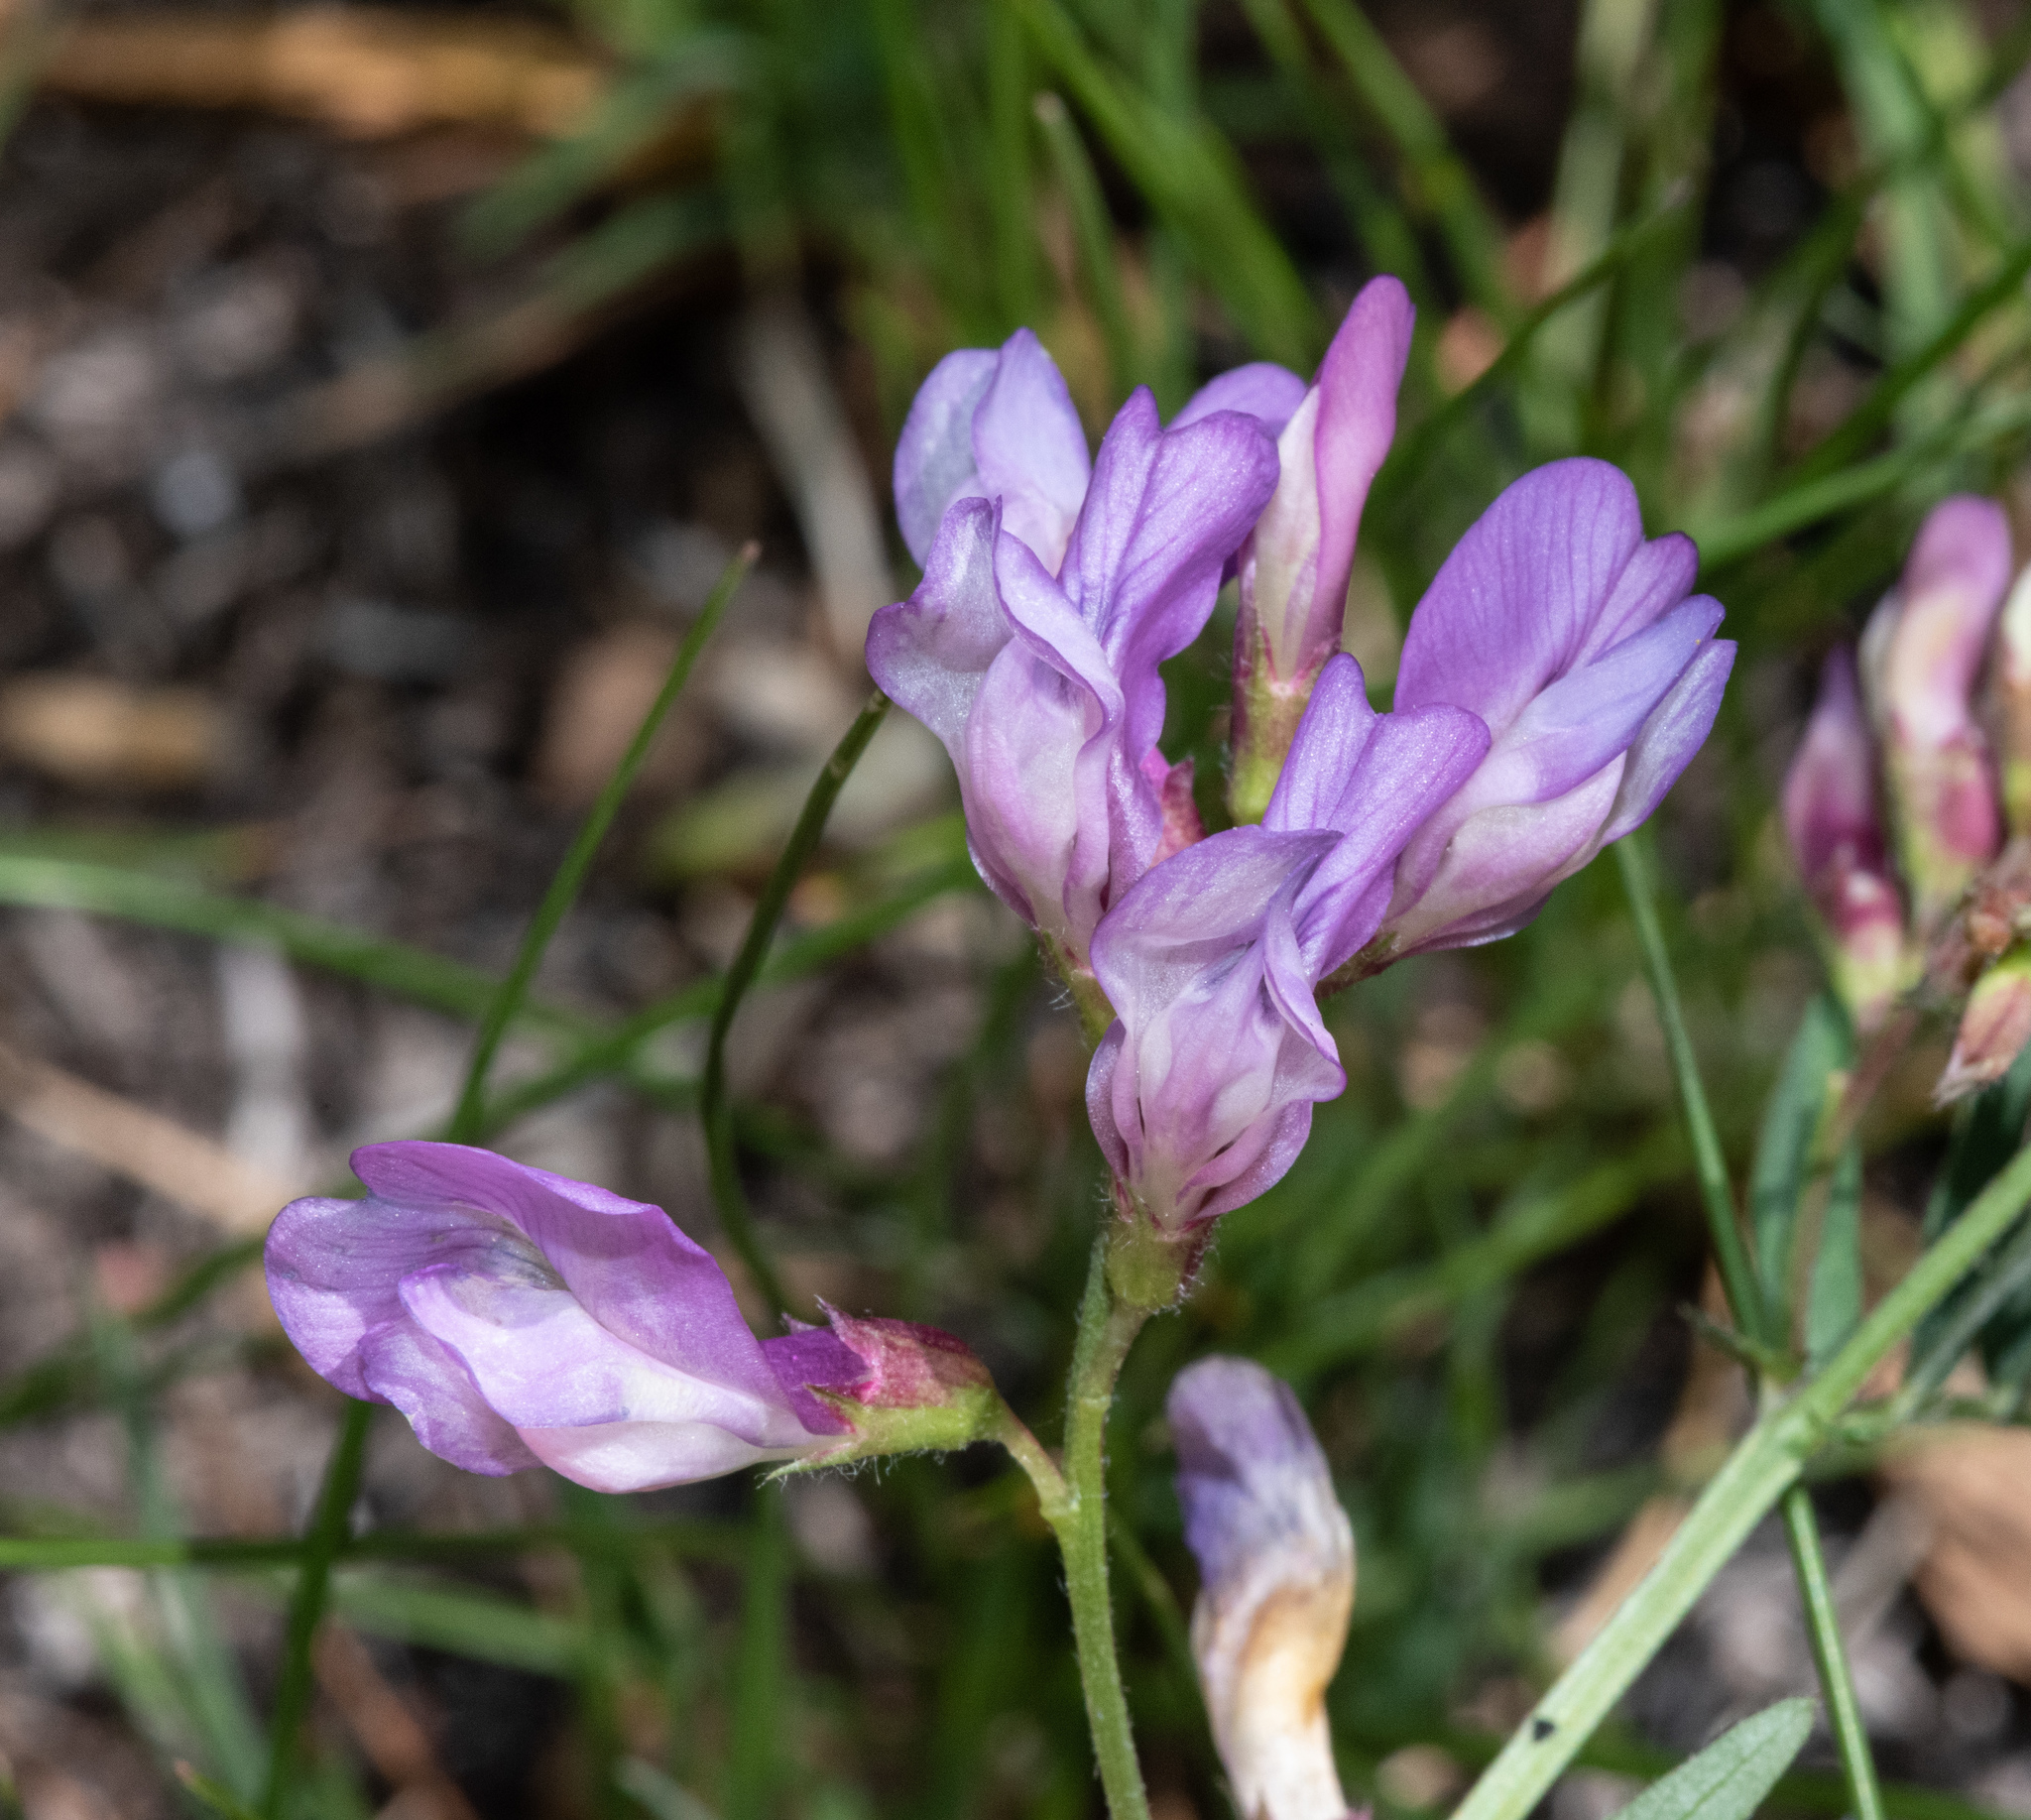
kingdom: Plantae
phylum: Tracheophyta
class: Magnoliopsida
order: Fabales
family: Fabaceae
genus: Vicia
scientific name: Vicia americana
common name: American vetch
